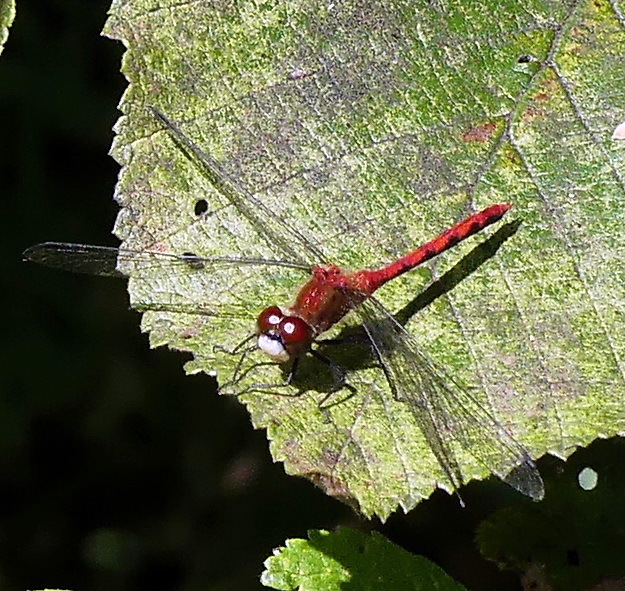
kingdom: Animalia
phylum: Arthropoda
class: Insecta
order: Odonata
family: Libellulidae
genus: Sympetrum
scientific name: Sympetrum obtrusum
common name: White-faced meadowhawk
